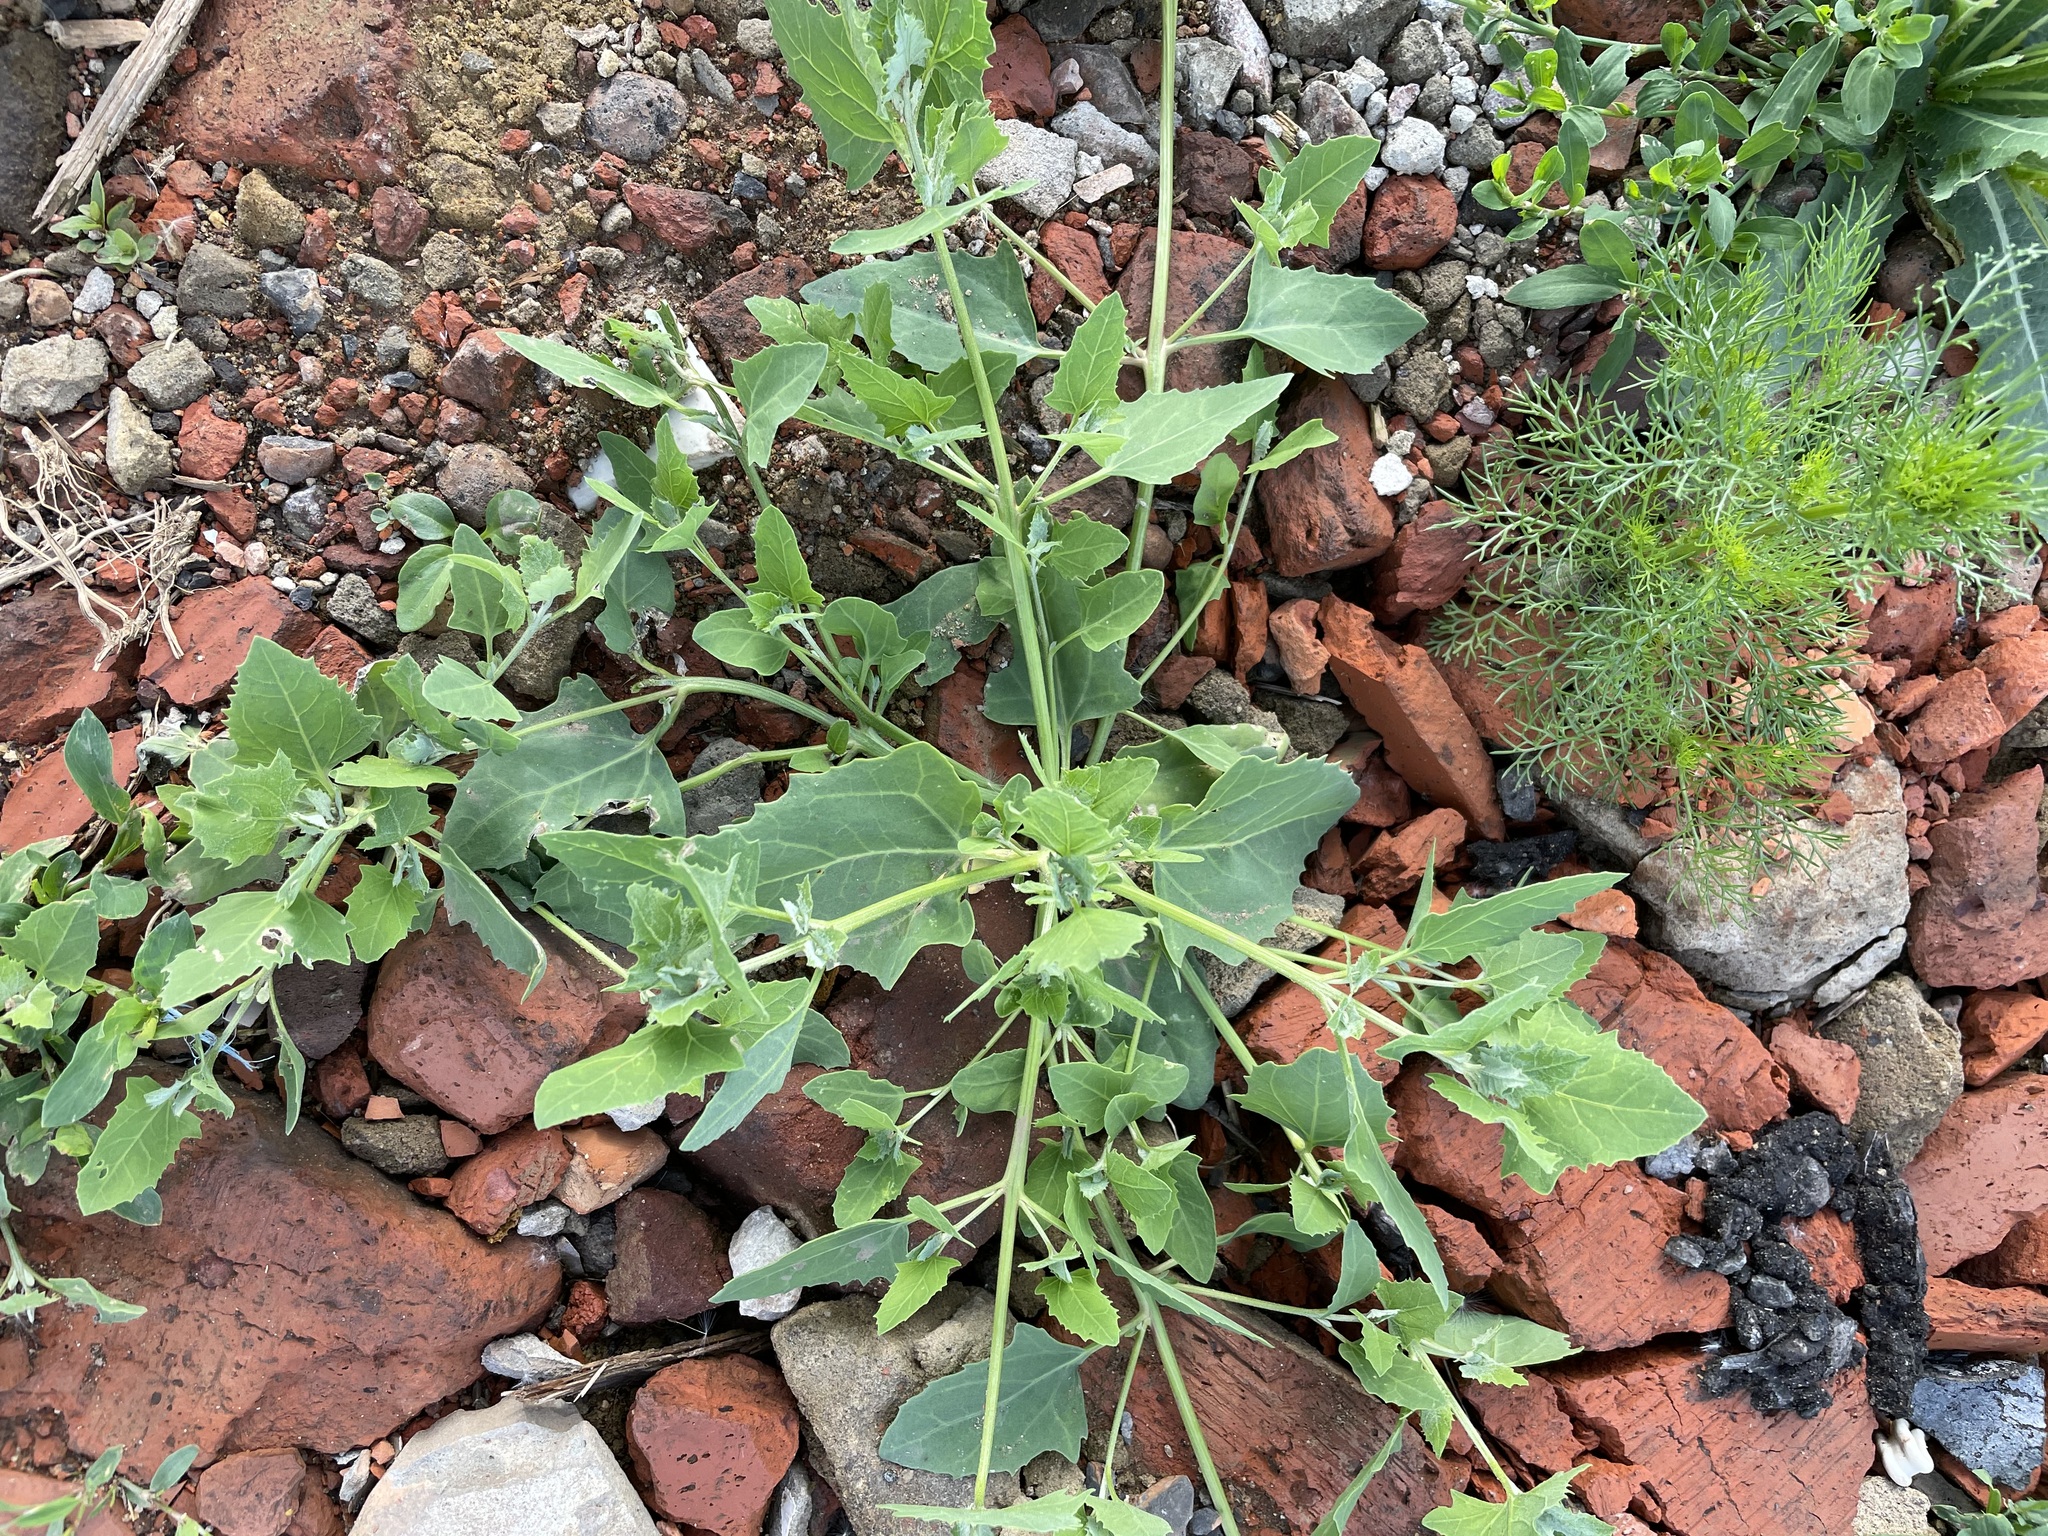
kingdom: Plantae
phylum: Tracheophyta
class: Magnoliopsida
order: Caryophyllales
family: Amaranthaceae
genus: Atriplex
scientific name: Atriplex patula
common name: Common orache
